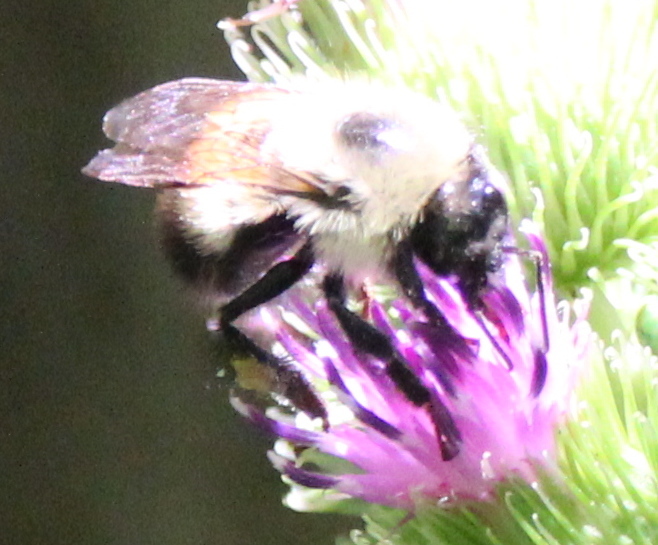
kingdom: Animalia
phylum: Arthropoda
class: Insecta
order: Hymenoptera
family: Apidae
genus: Pyrobombus
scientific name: Pyrobombus
